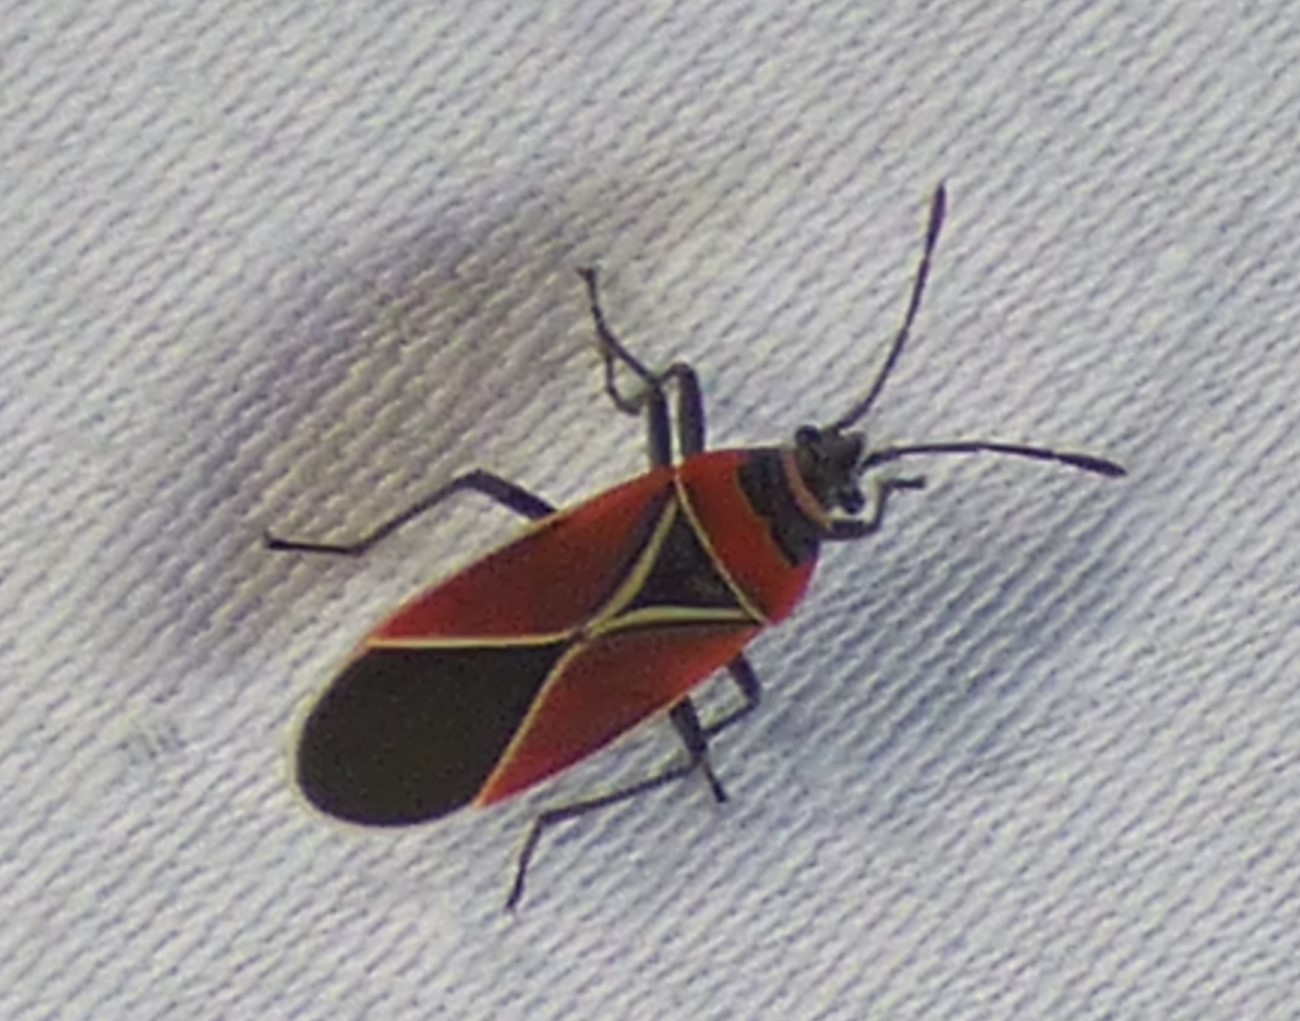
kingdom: Animalia
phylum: Arthropoda
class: Insecta
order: Hemiptera
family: Lygaeidae
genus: Neacoryphus
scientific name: Neacoryphus bicrucis
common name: Lygaeid bug
